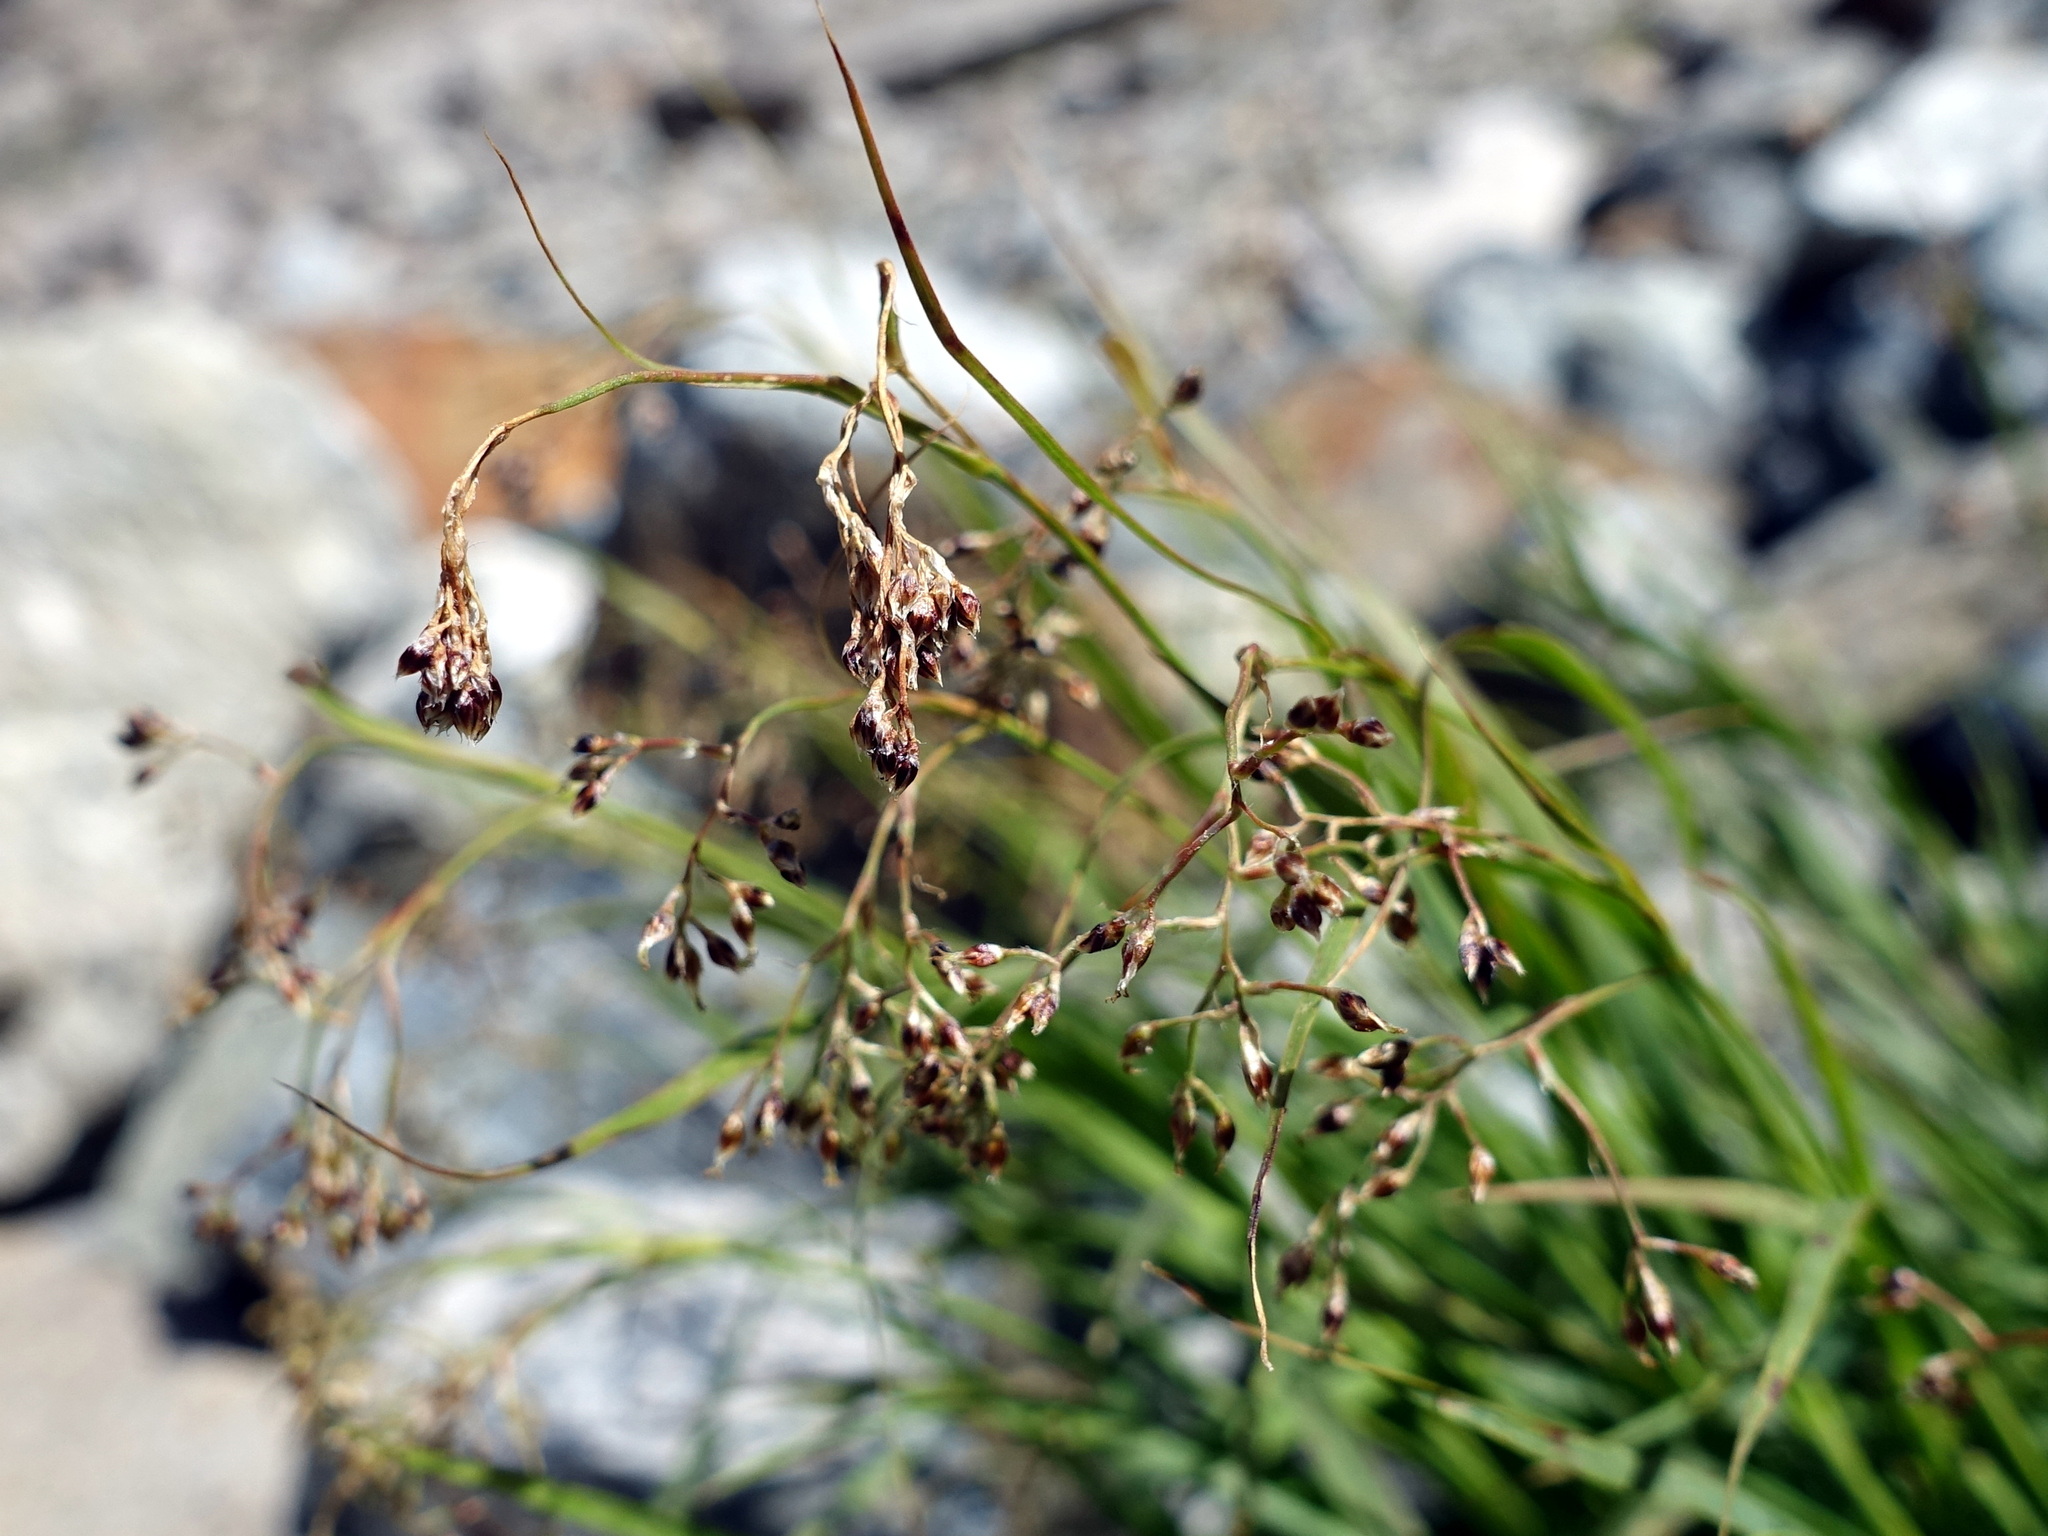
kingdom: Plantae
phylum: Tracheophyta
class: Liliopsida
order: Poales
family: Juncaceae
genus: Luzula
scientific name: Luzula alpinopilosa
